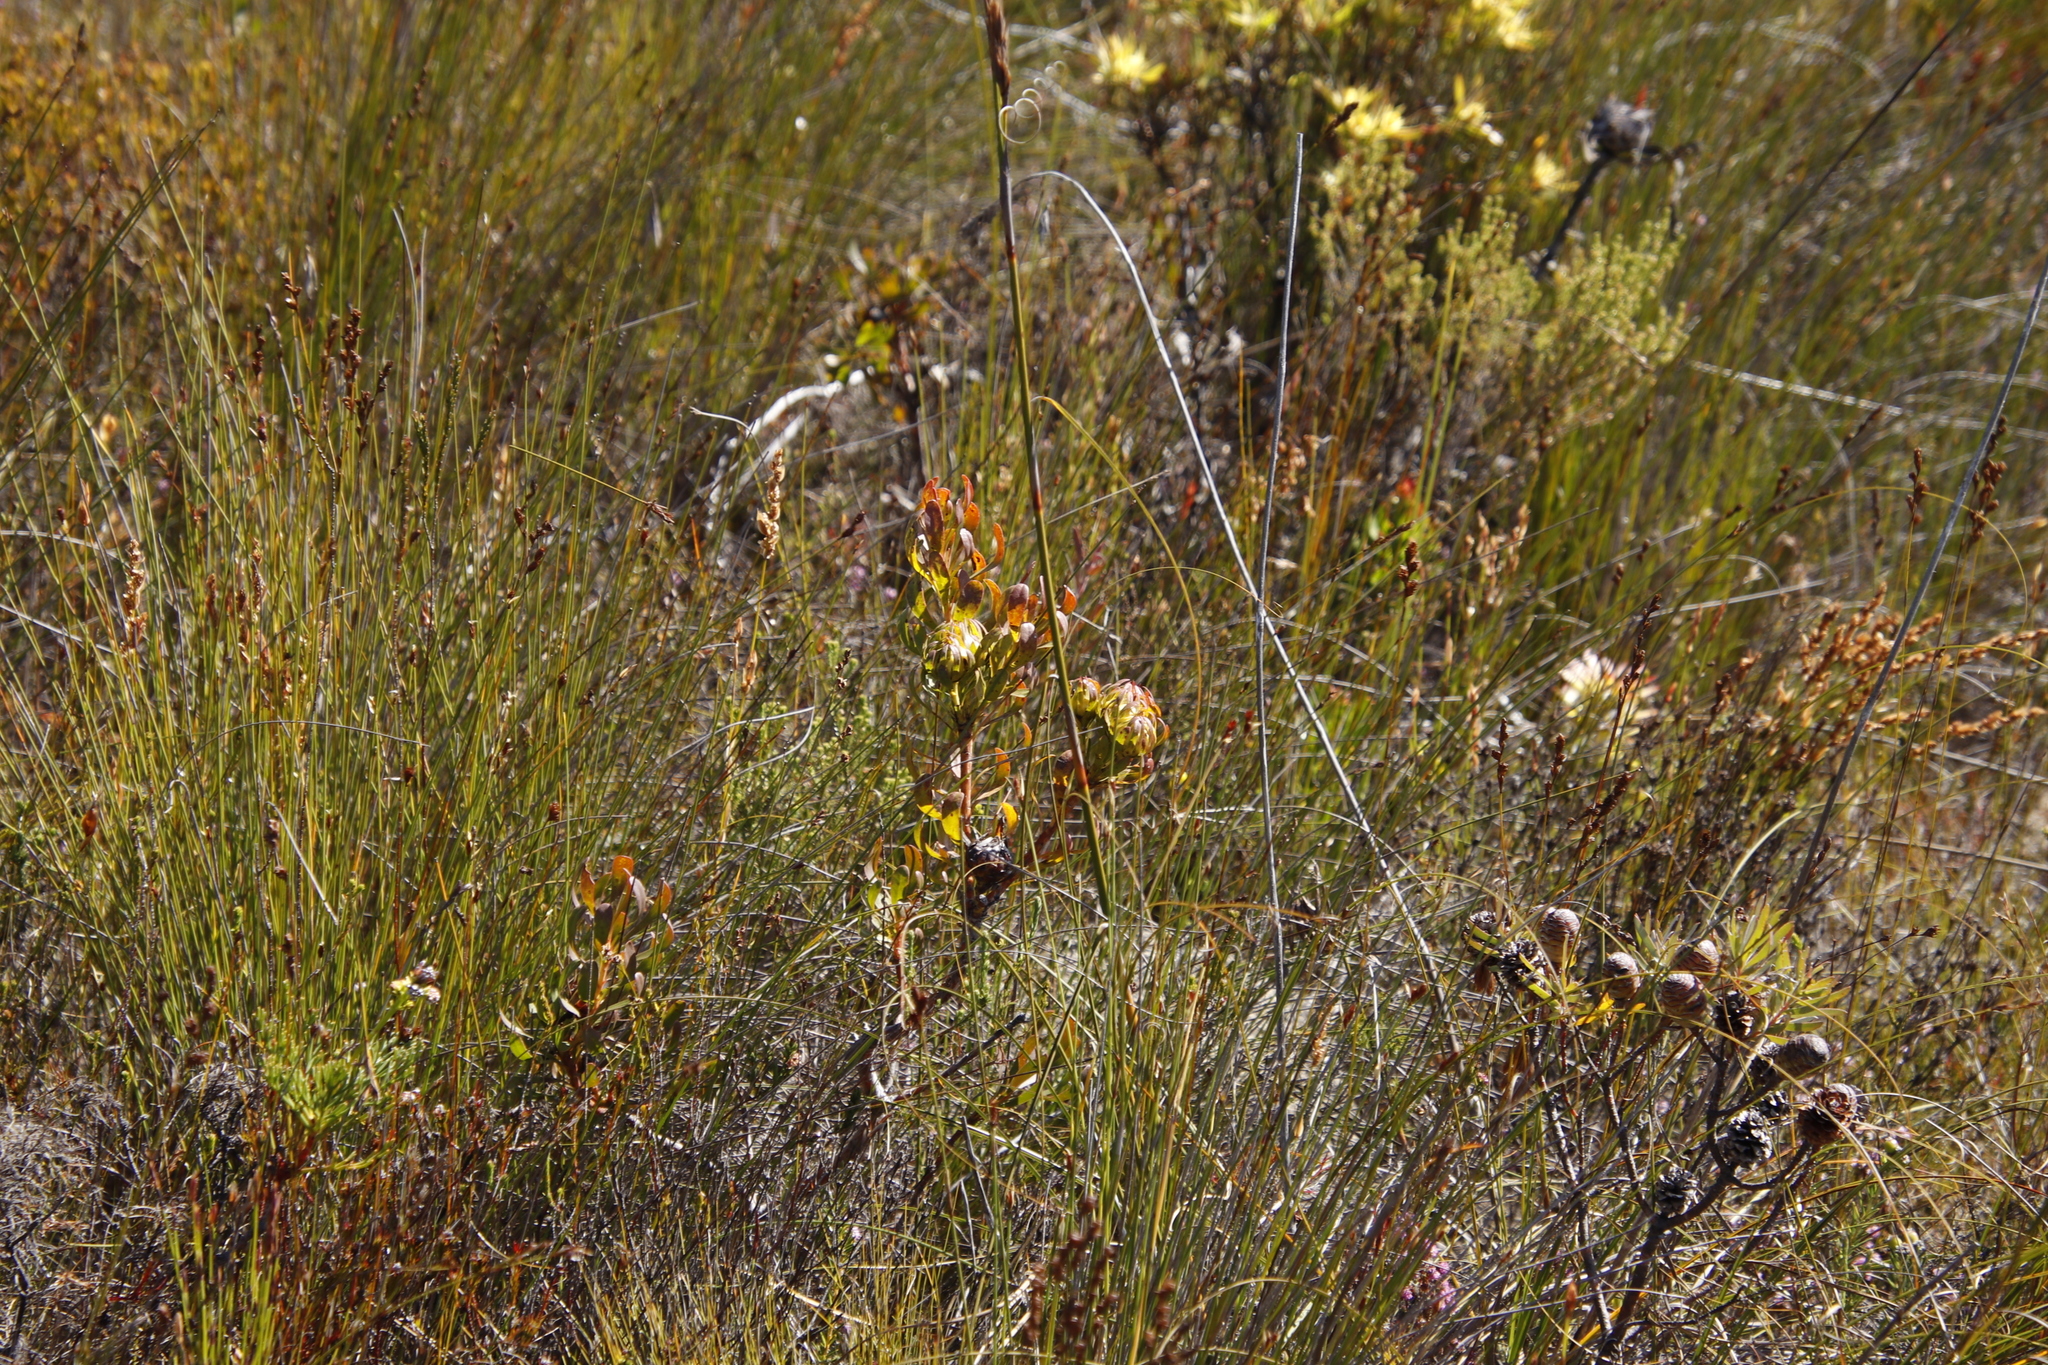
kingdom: Plantae
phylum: Tracheophyta
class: Magnoliopsida
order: Proteales
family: Proteaceae
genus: Aulax
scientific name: Aulax umbellata
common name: Broad-leaf featherbush
